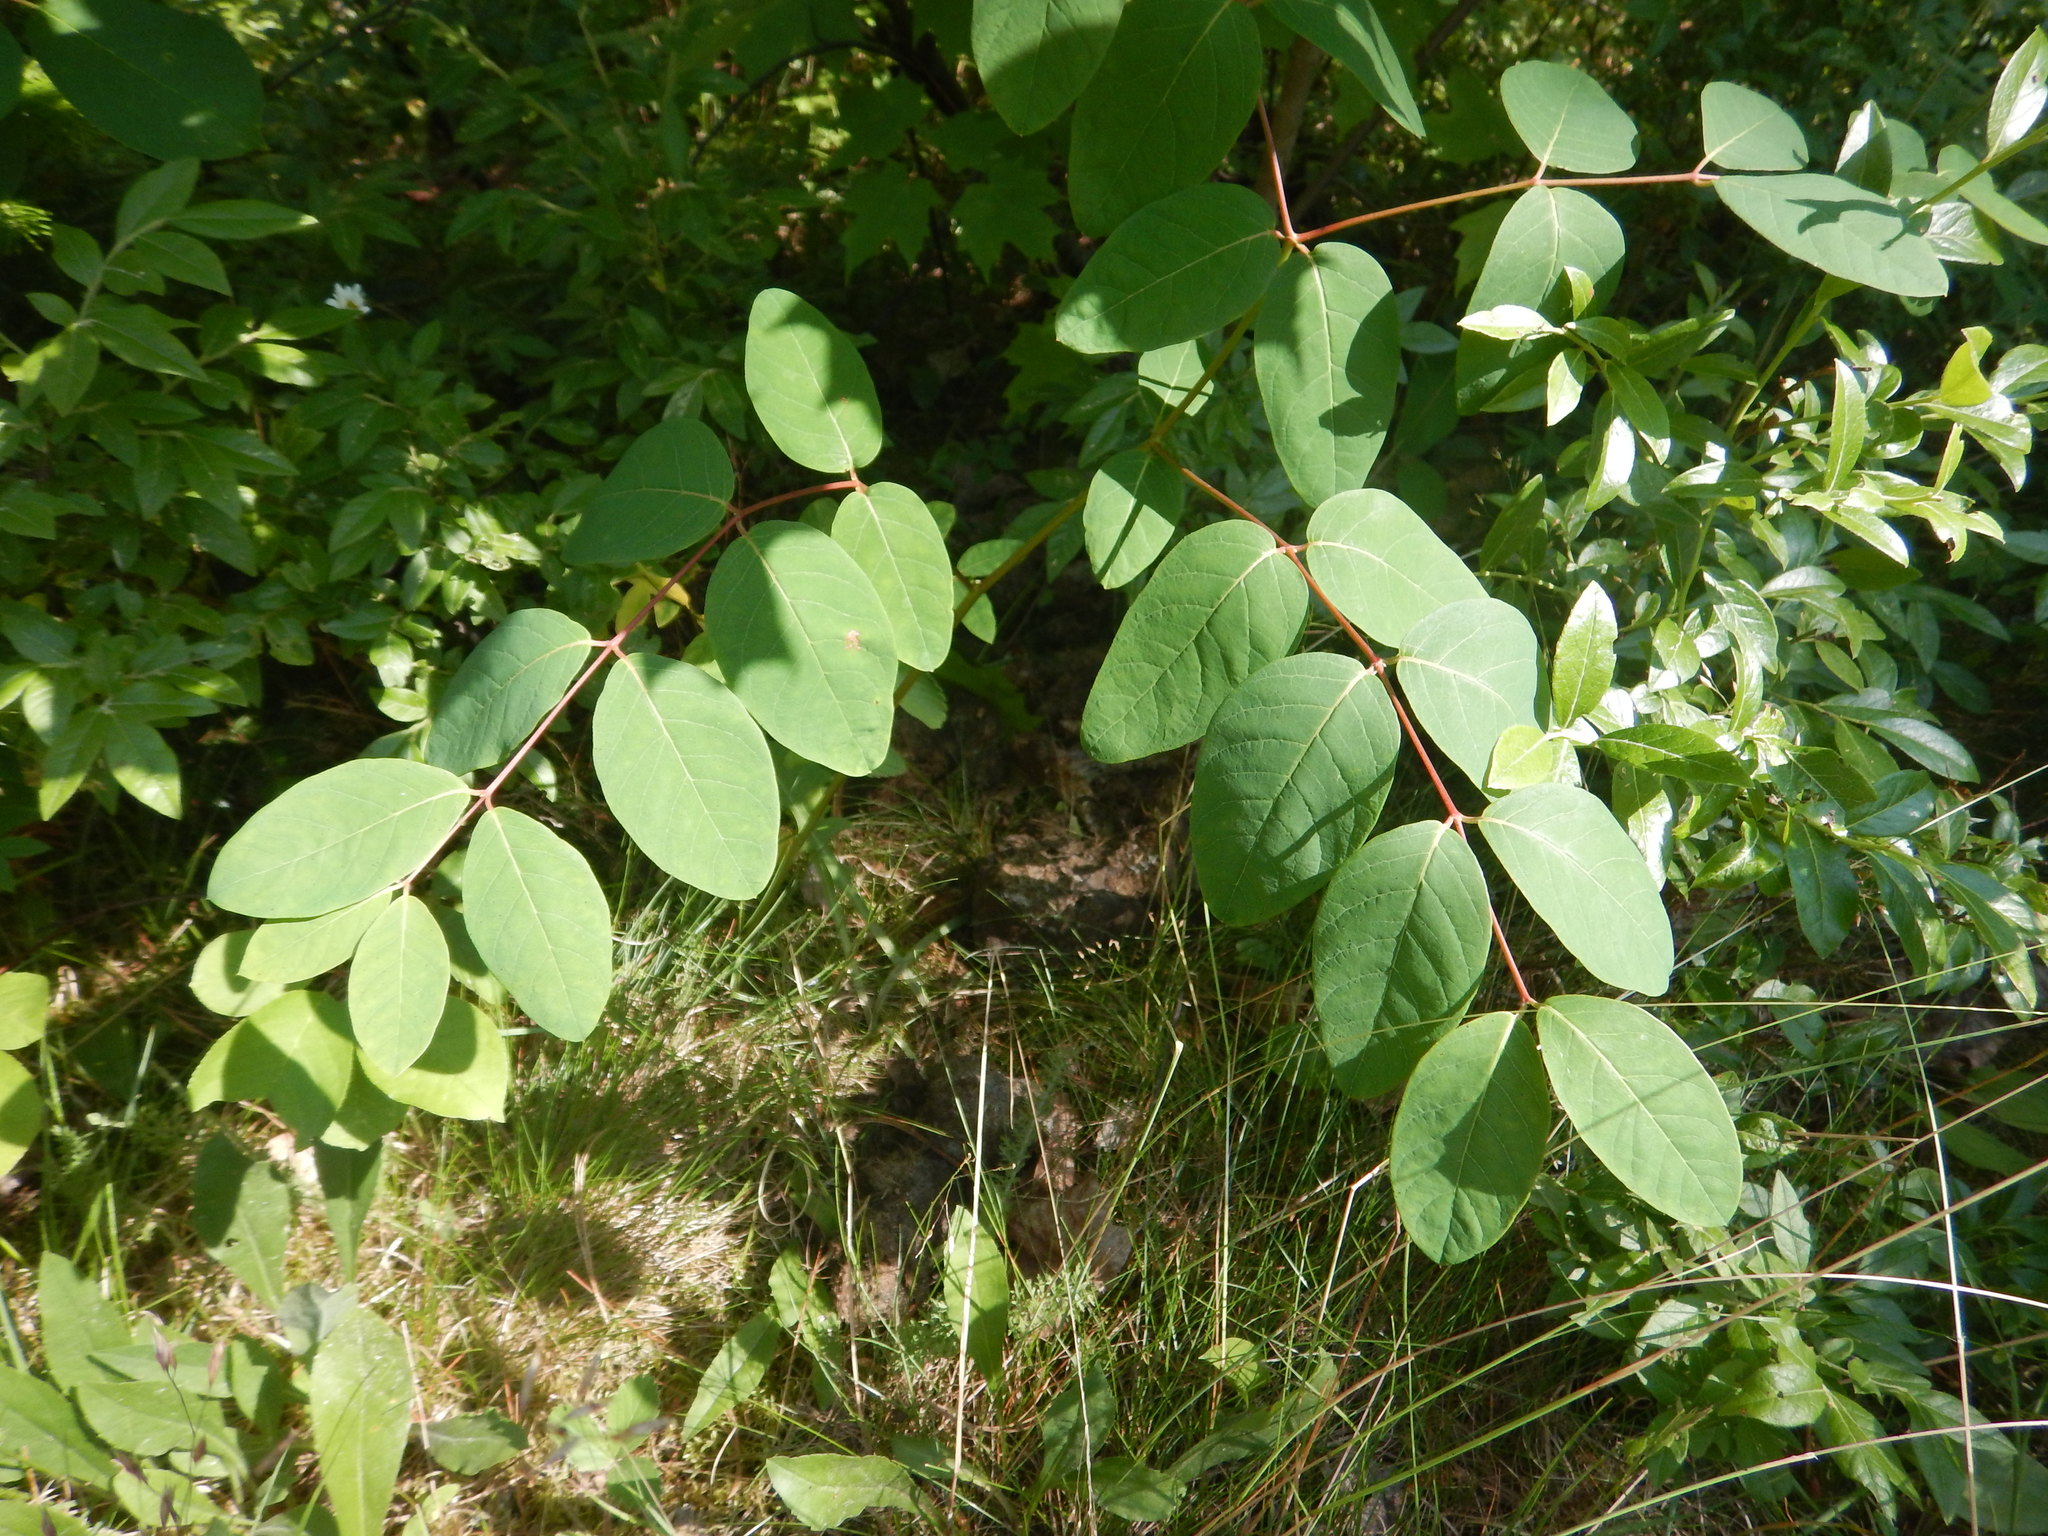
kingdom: Plantae
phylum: Tracheophyta
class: Magnoliopsida
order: Gentianales
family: Apocynaceae
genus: Apocynum
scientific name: Apocynum androsaemifolium
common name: Spreading dogbane
